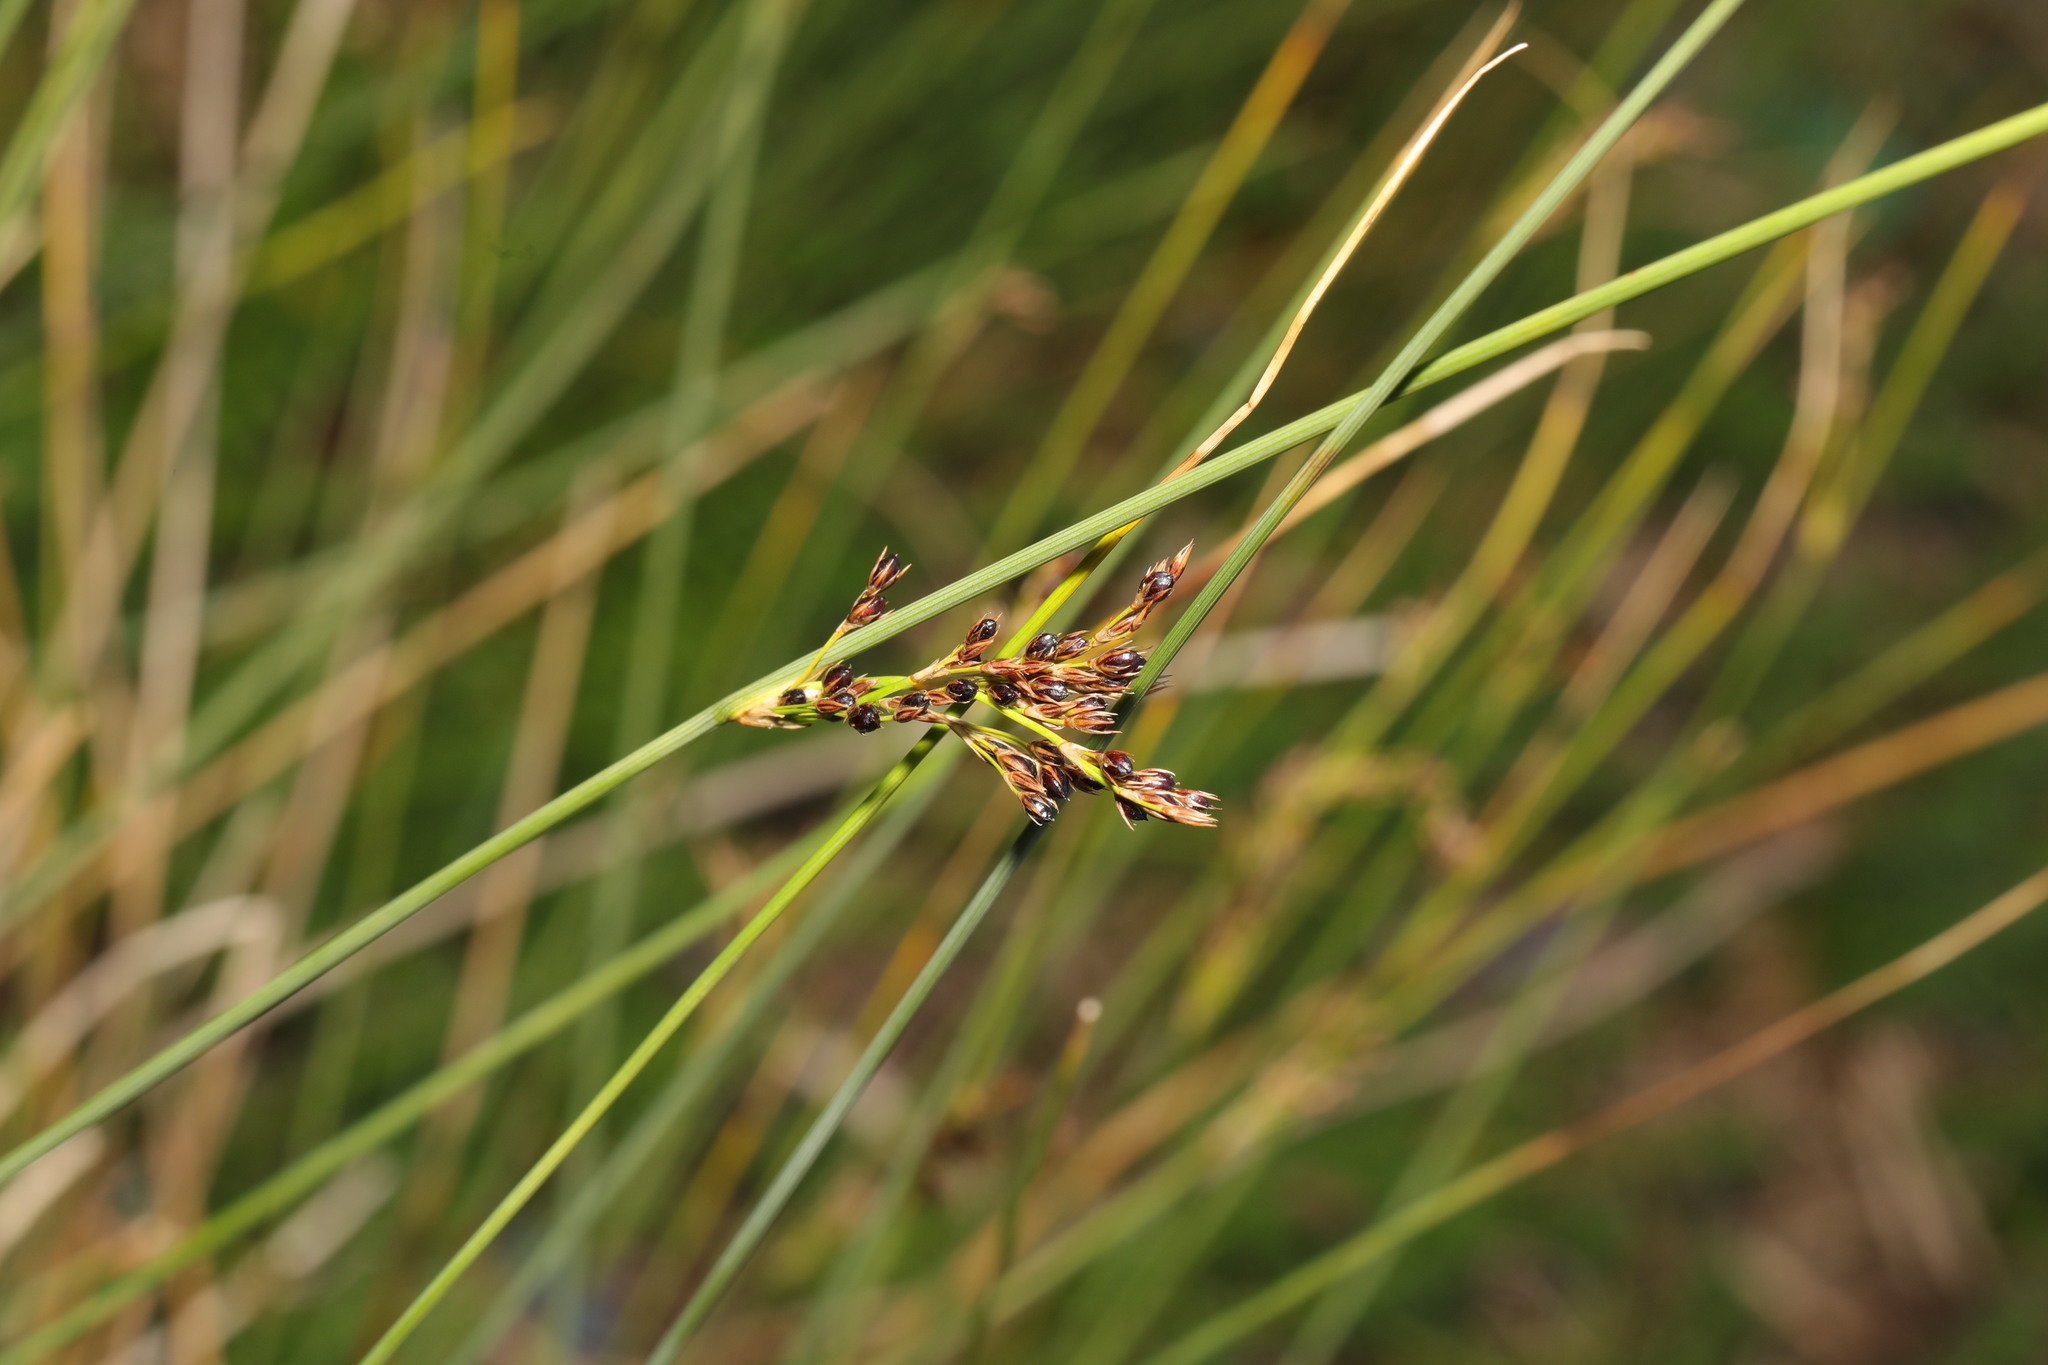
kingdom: Plantae
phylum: Tracheophyta
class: Liliopsida
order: Poales
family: Juncaceae
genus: Juncus
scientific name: Juncus inflexus
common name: Hard rush
